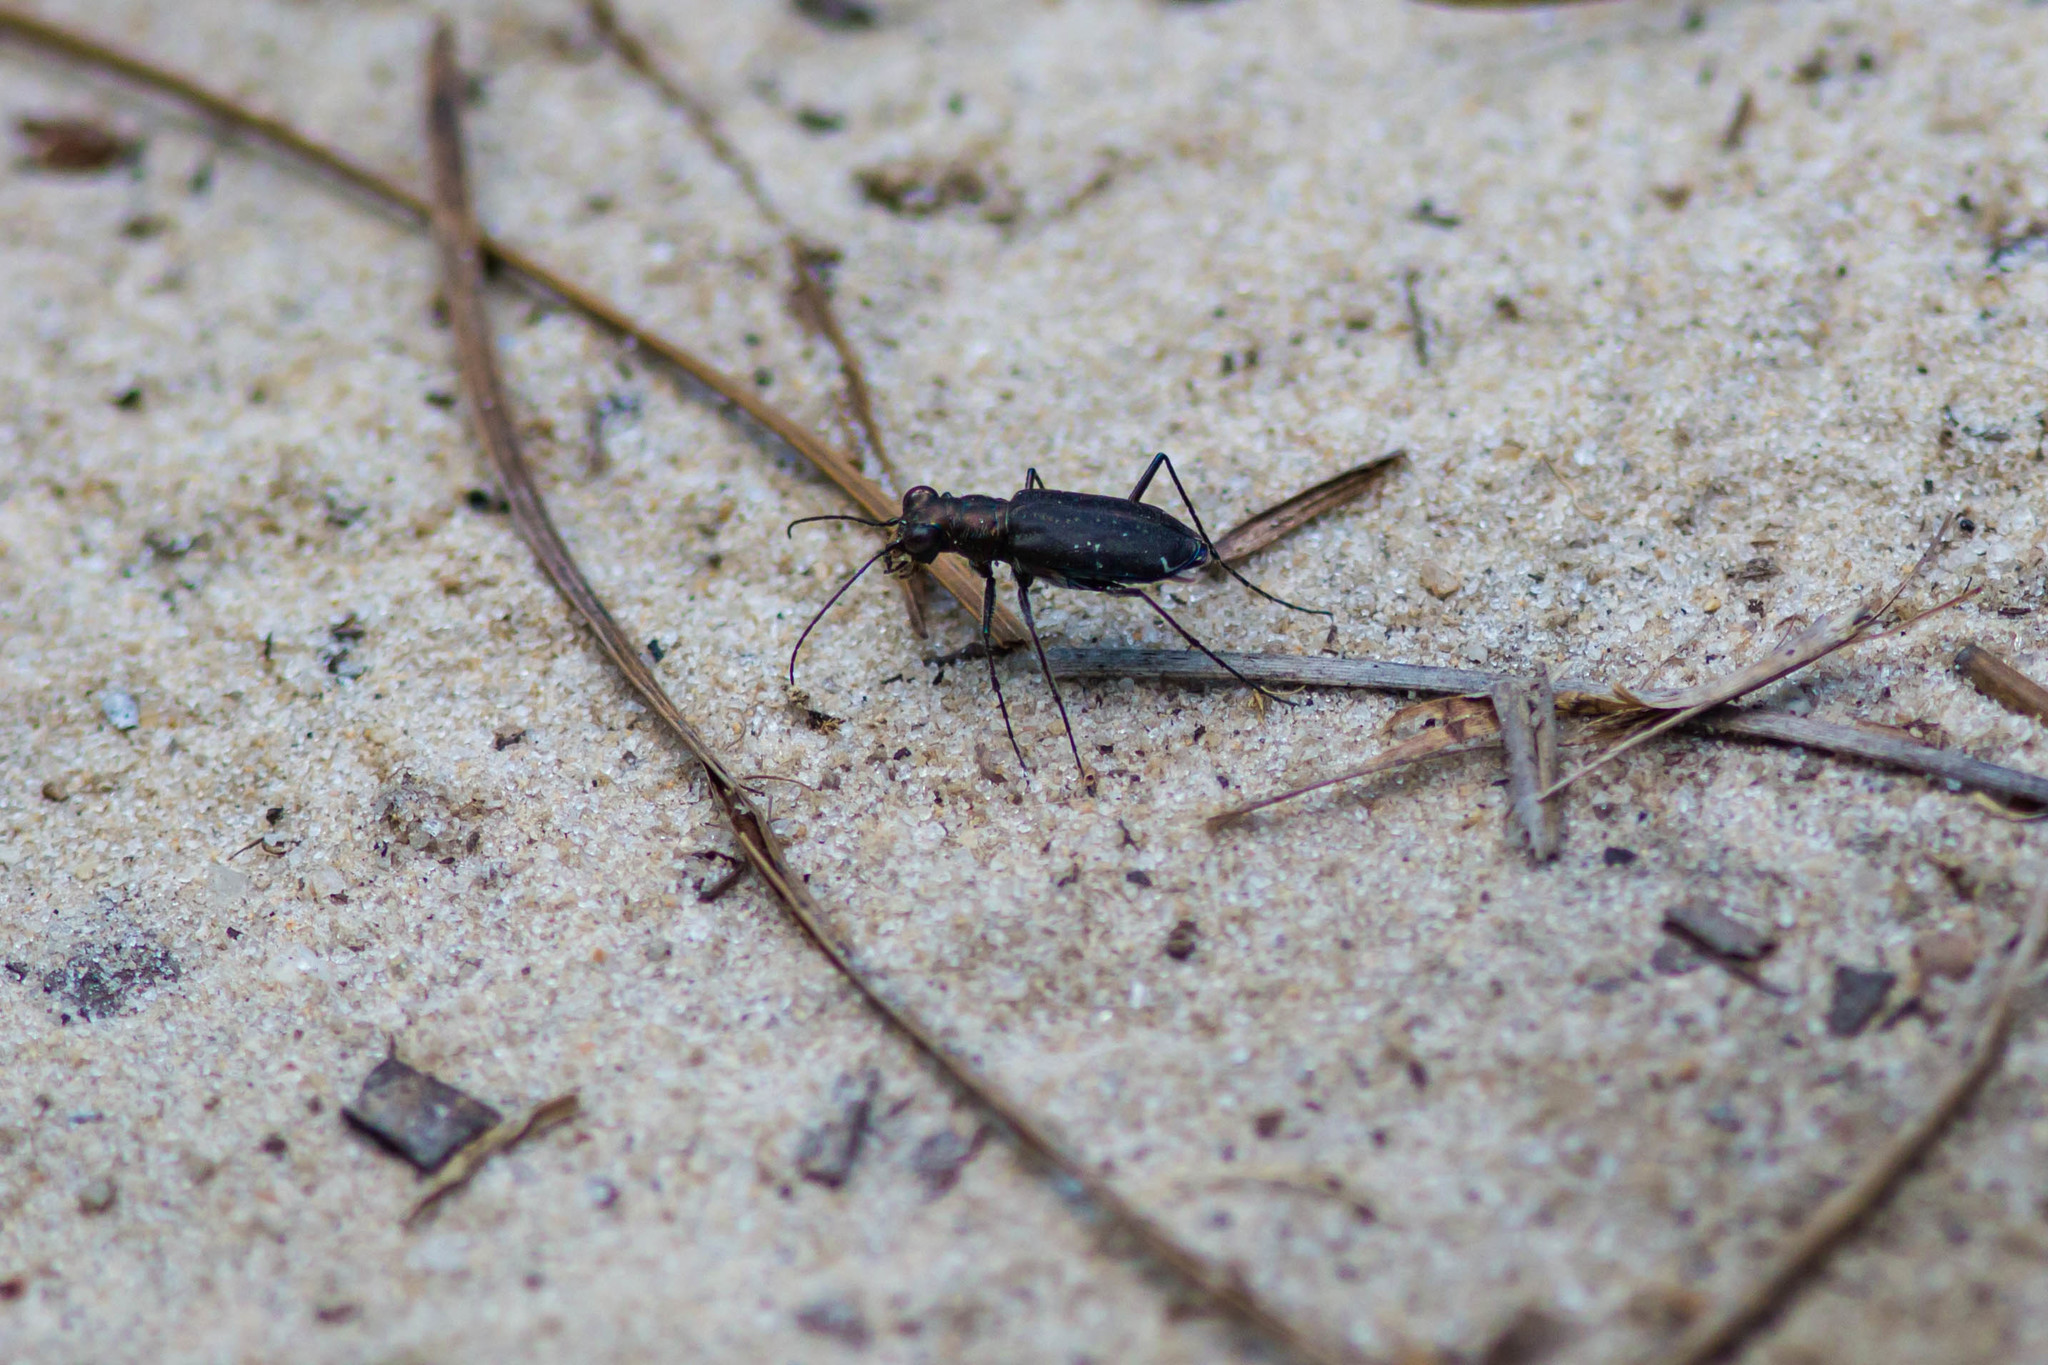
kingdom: Animalia
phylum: Arthropoda
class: Insecta
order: Coleoptera
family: Carabidae
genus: Cicindela
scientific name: Cicindela punctulata
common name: Punctured tiger beetle
